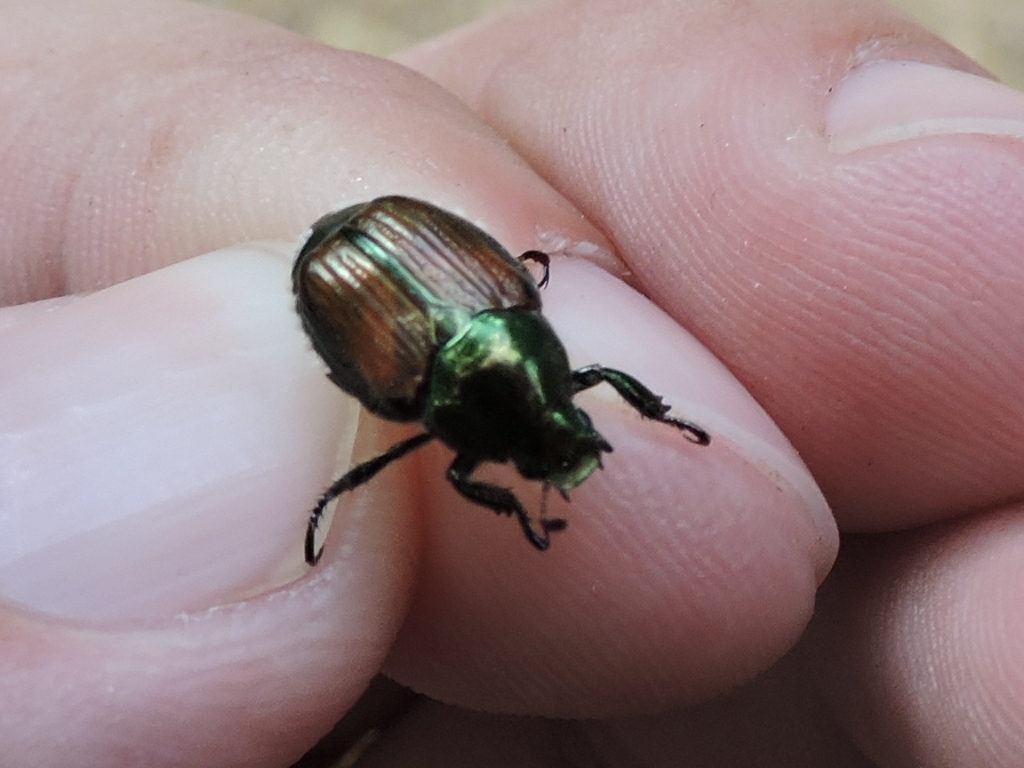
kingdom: Animalia
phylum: Arthropoda
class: Insecta
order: Coleoptera
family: Scarabaeidae
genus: Popillia
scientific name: Popillia japonica
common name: Japanese beetle
